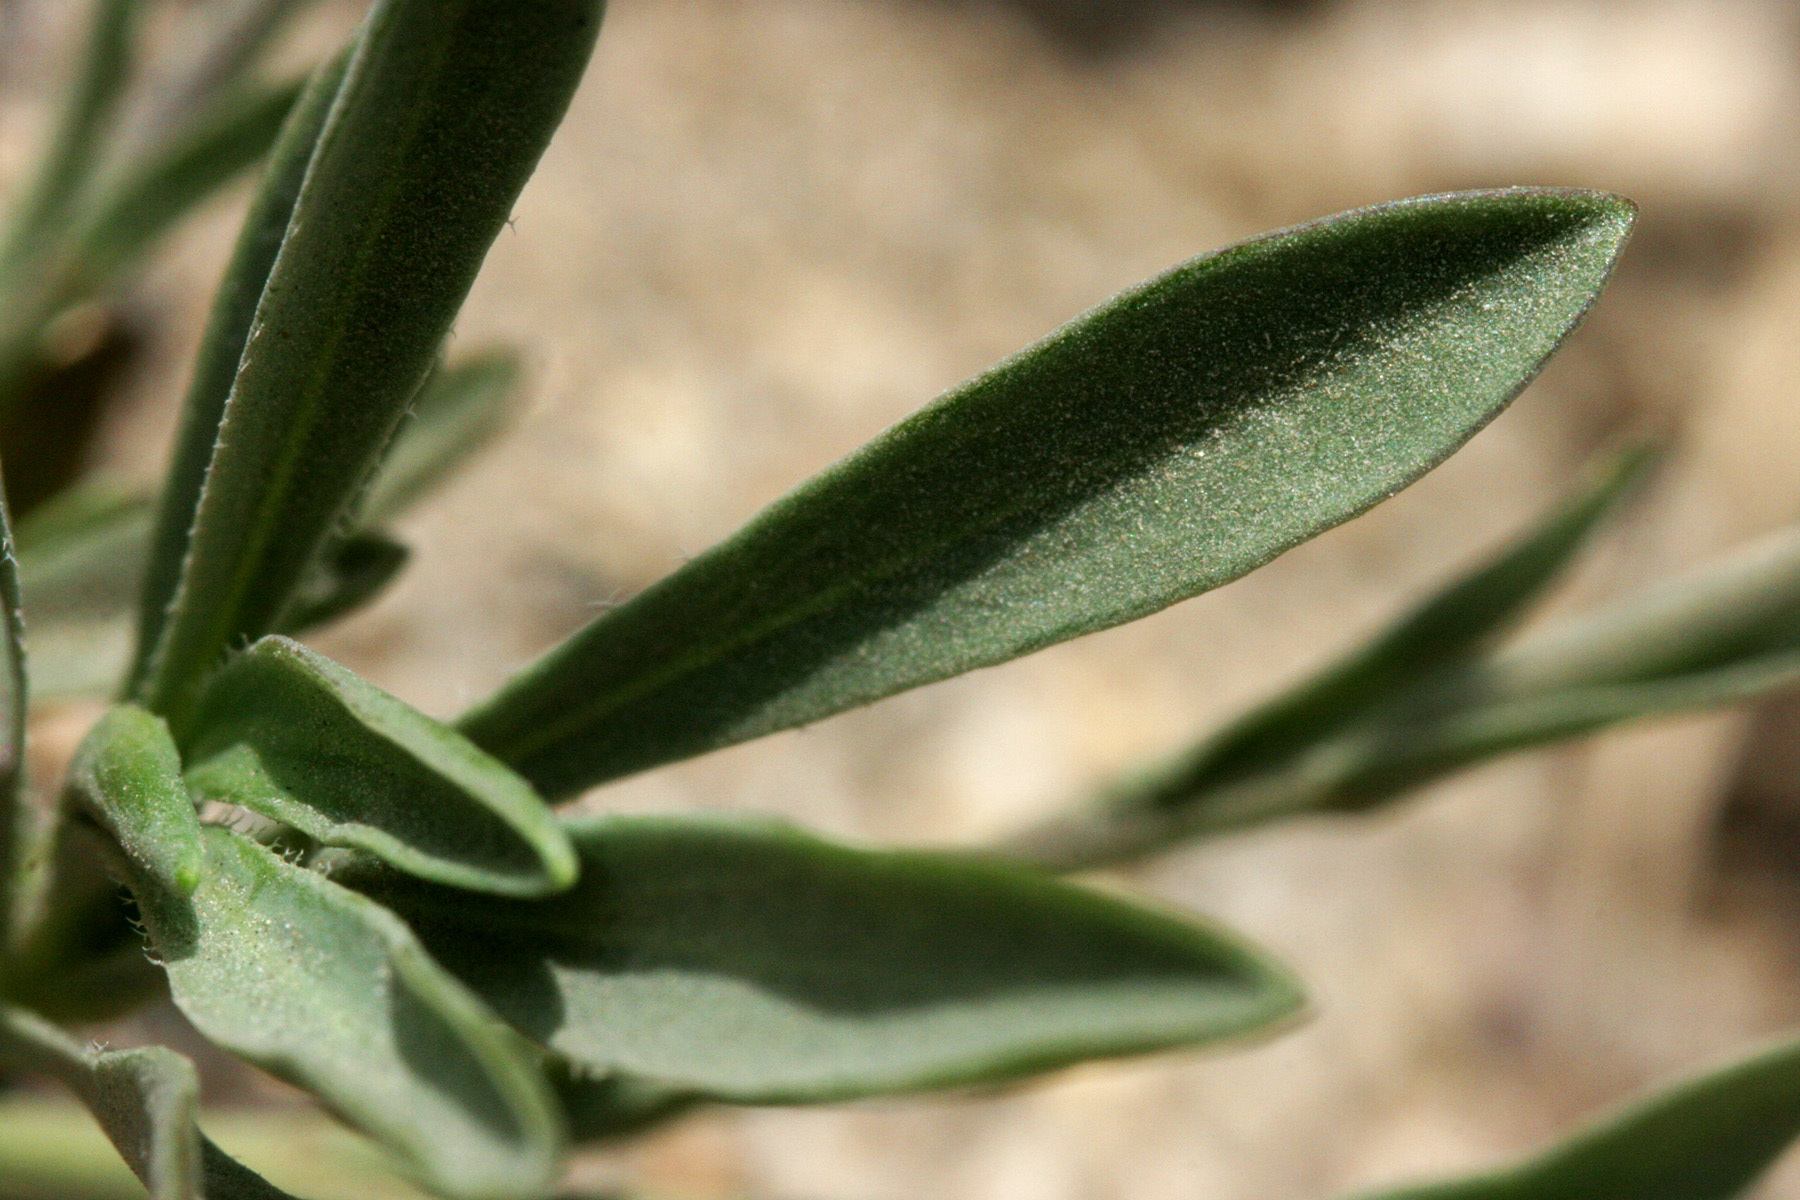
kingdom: Plantae
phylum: Tracheophyta
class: Magnoliopsida
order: Brassicales
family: Brassicaceae
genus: Boechera
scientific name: Boechera howellii
